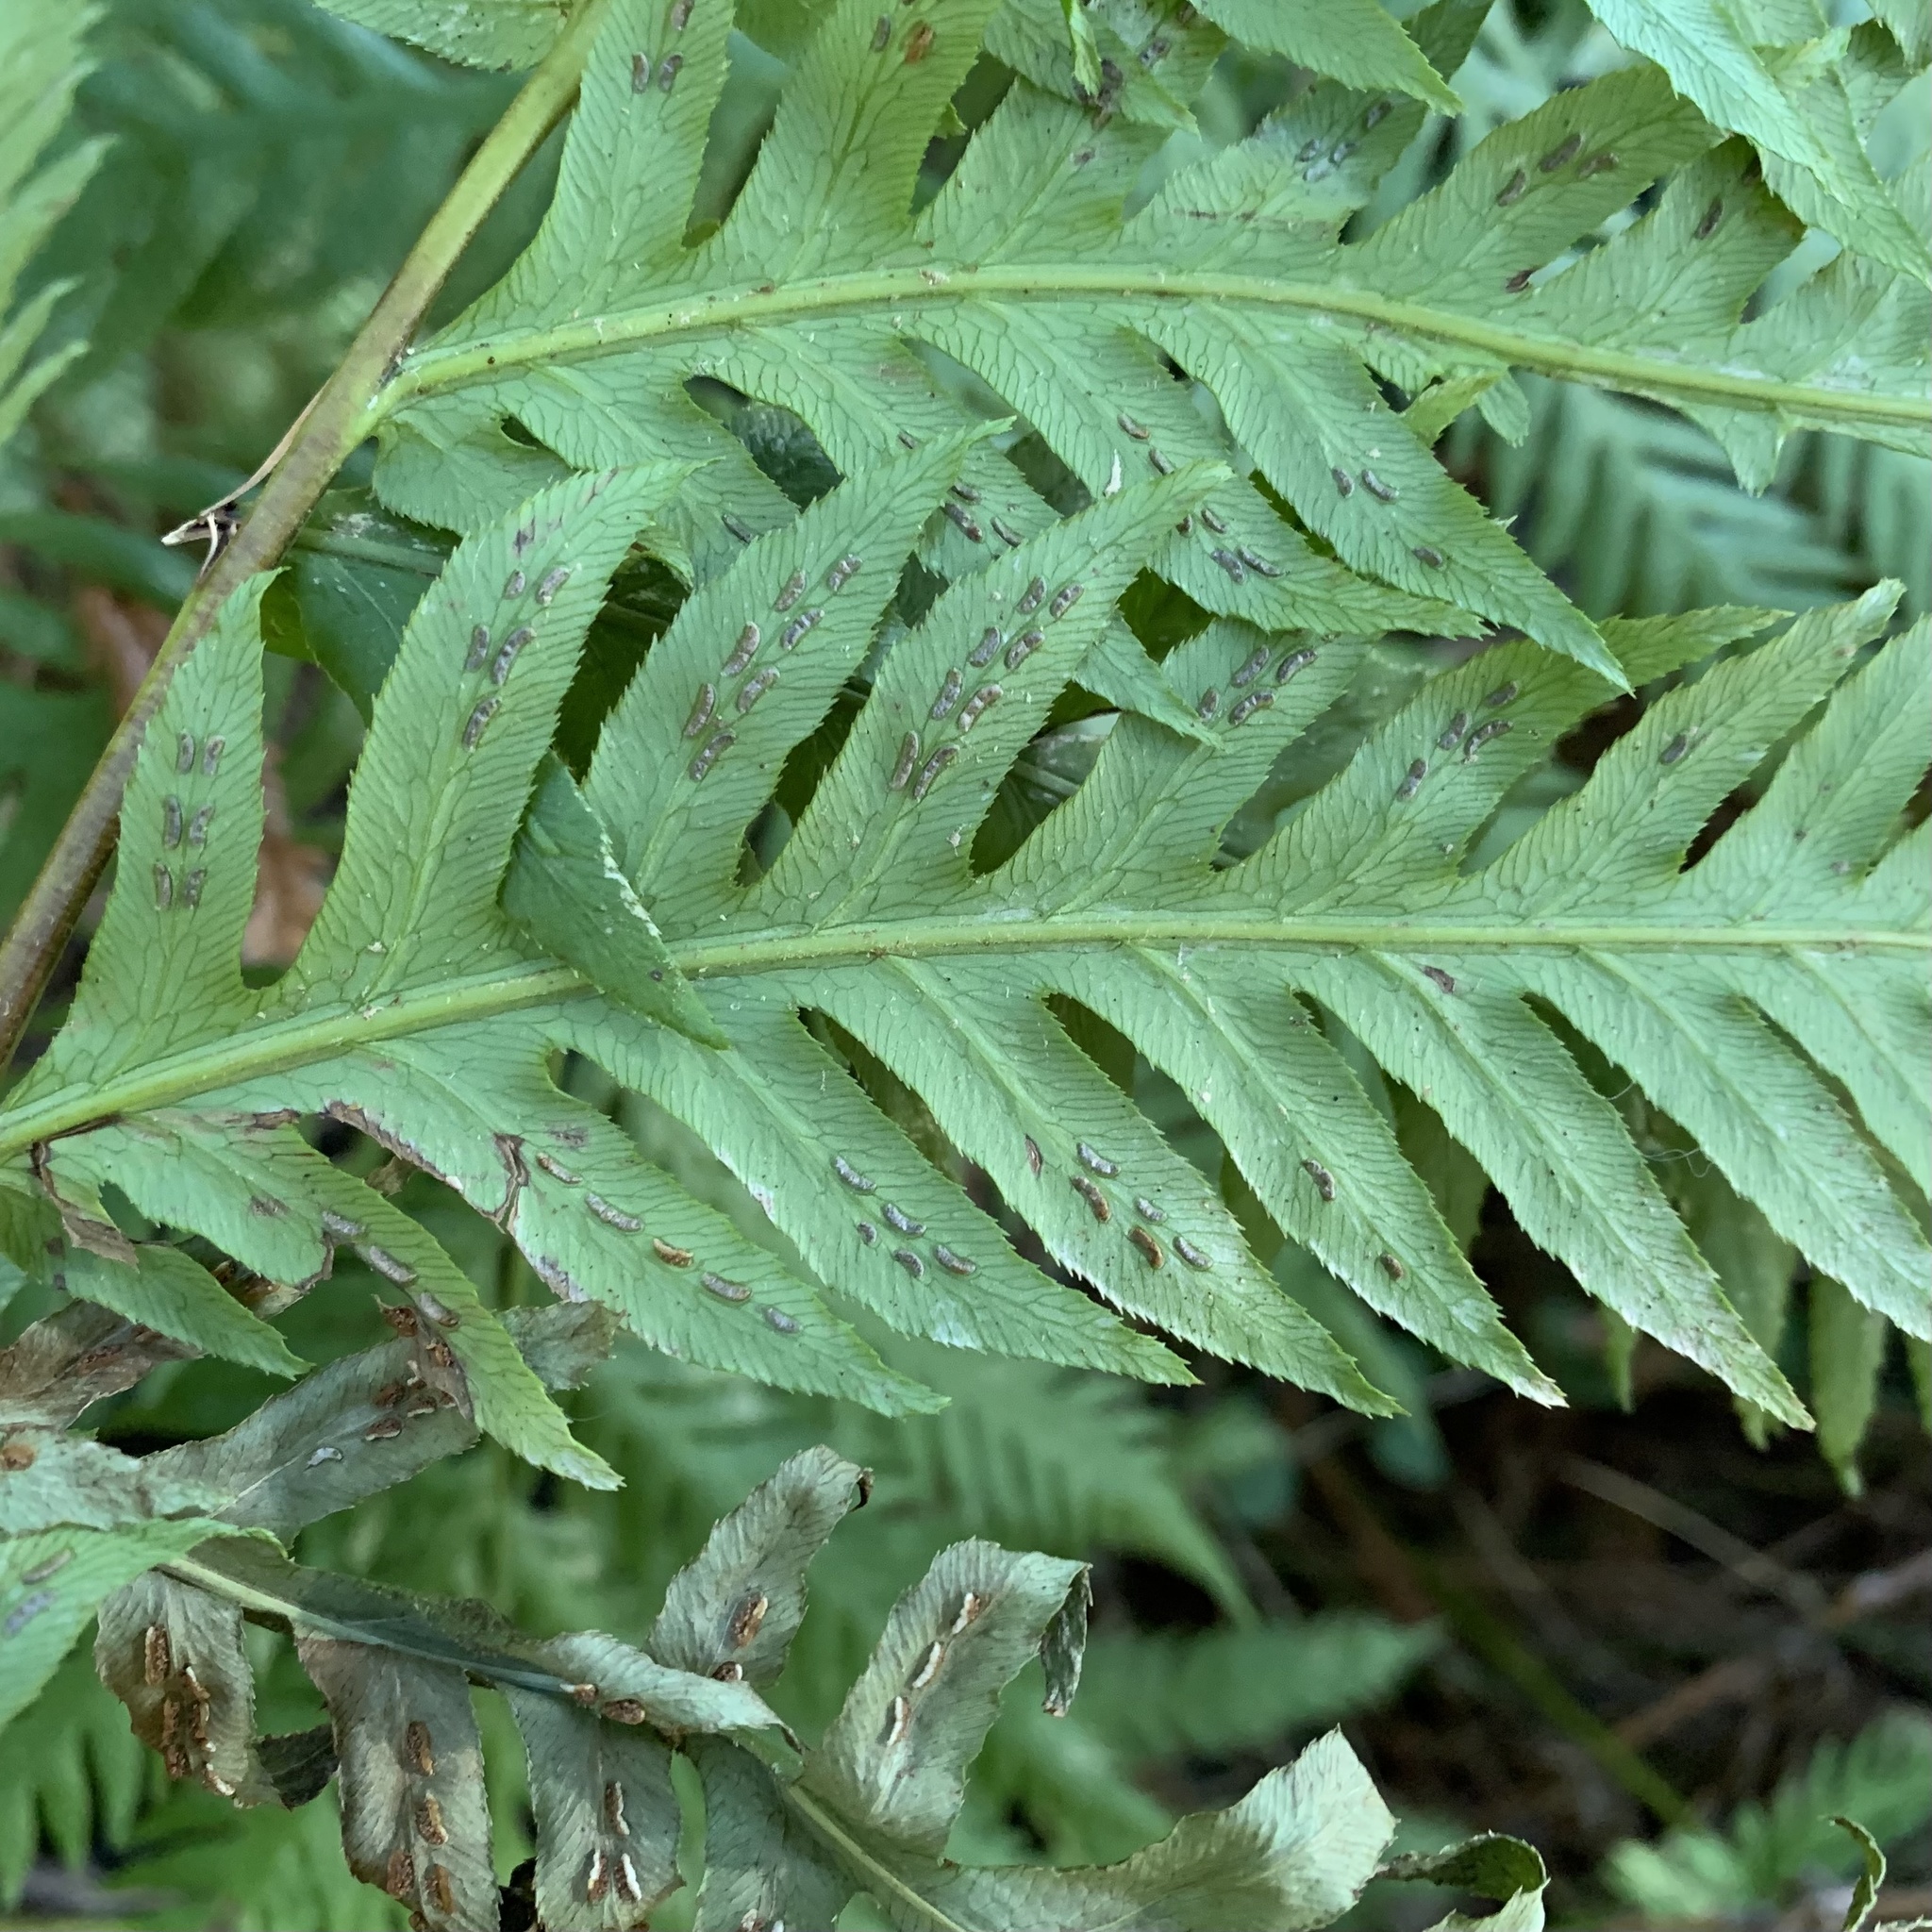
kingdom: Plantae
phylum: Tracheophyta
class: Polypodiopsida
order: Polypodiales
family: Blechnaceae
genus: Woodwardia
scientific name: Woodwardia fimbriata
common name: Giant chain fern
